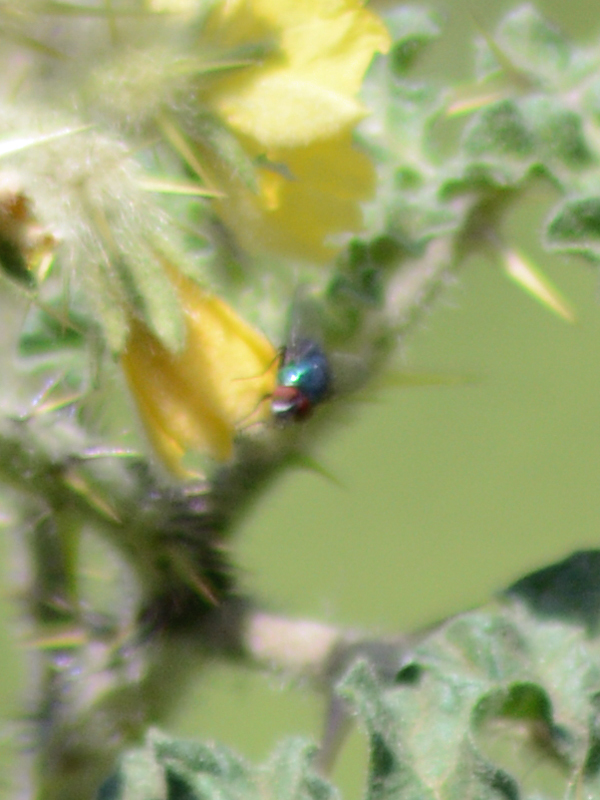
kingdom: Animalia
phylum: Arthropoda
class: Insecta
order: Diptera
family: Calliphoridae
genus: Lucilia
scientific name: Lucilia sericata
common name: Blow fly
